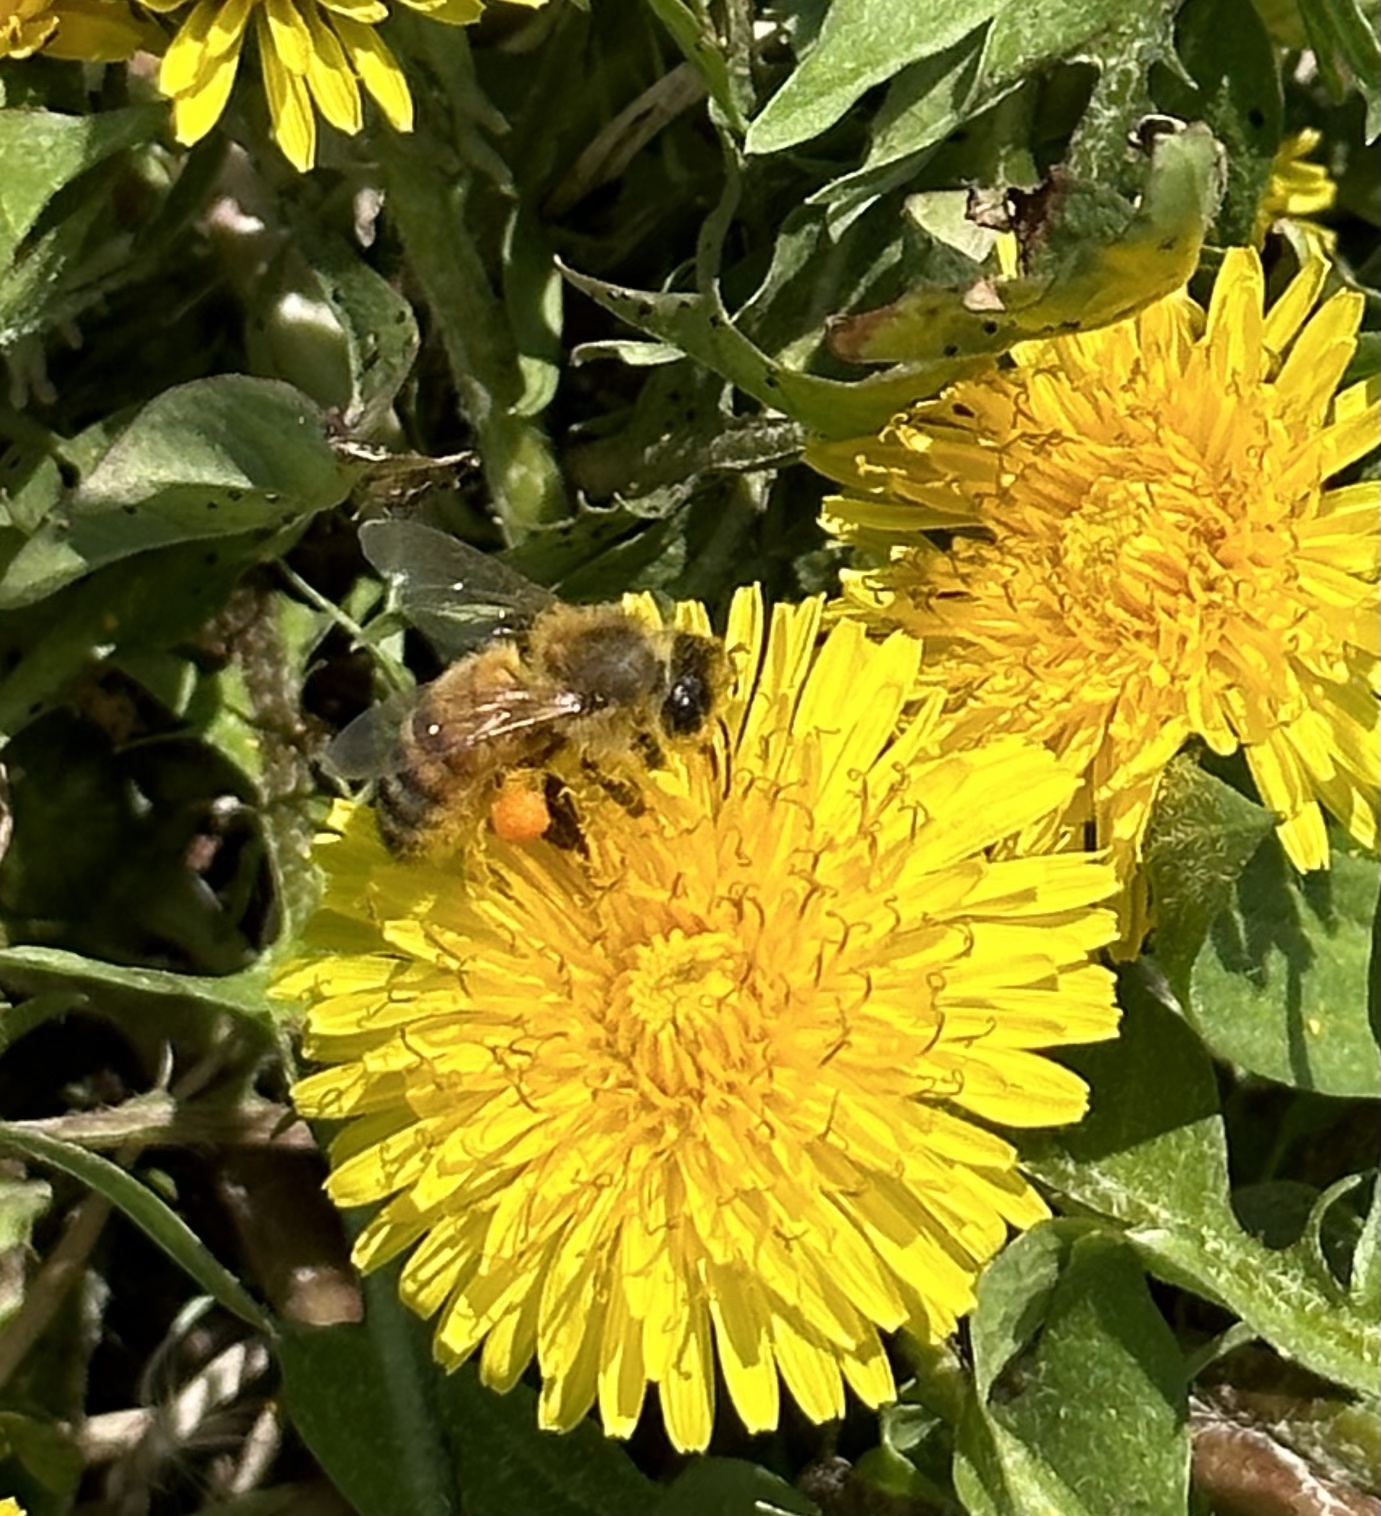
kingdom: Animalia
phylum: Arthropoda
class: Insecta
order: Hymenoptera
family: Apidae
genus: Apis
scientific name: Apis mellifera
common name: Honey bee
